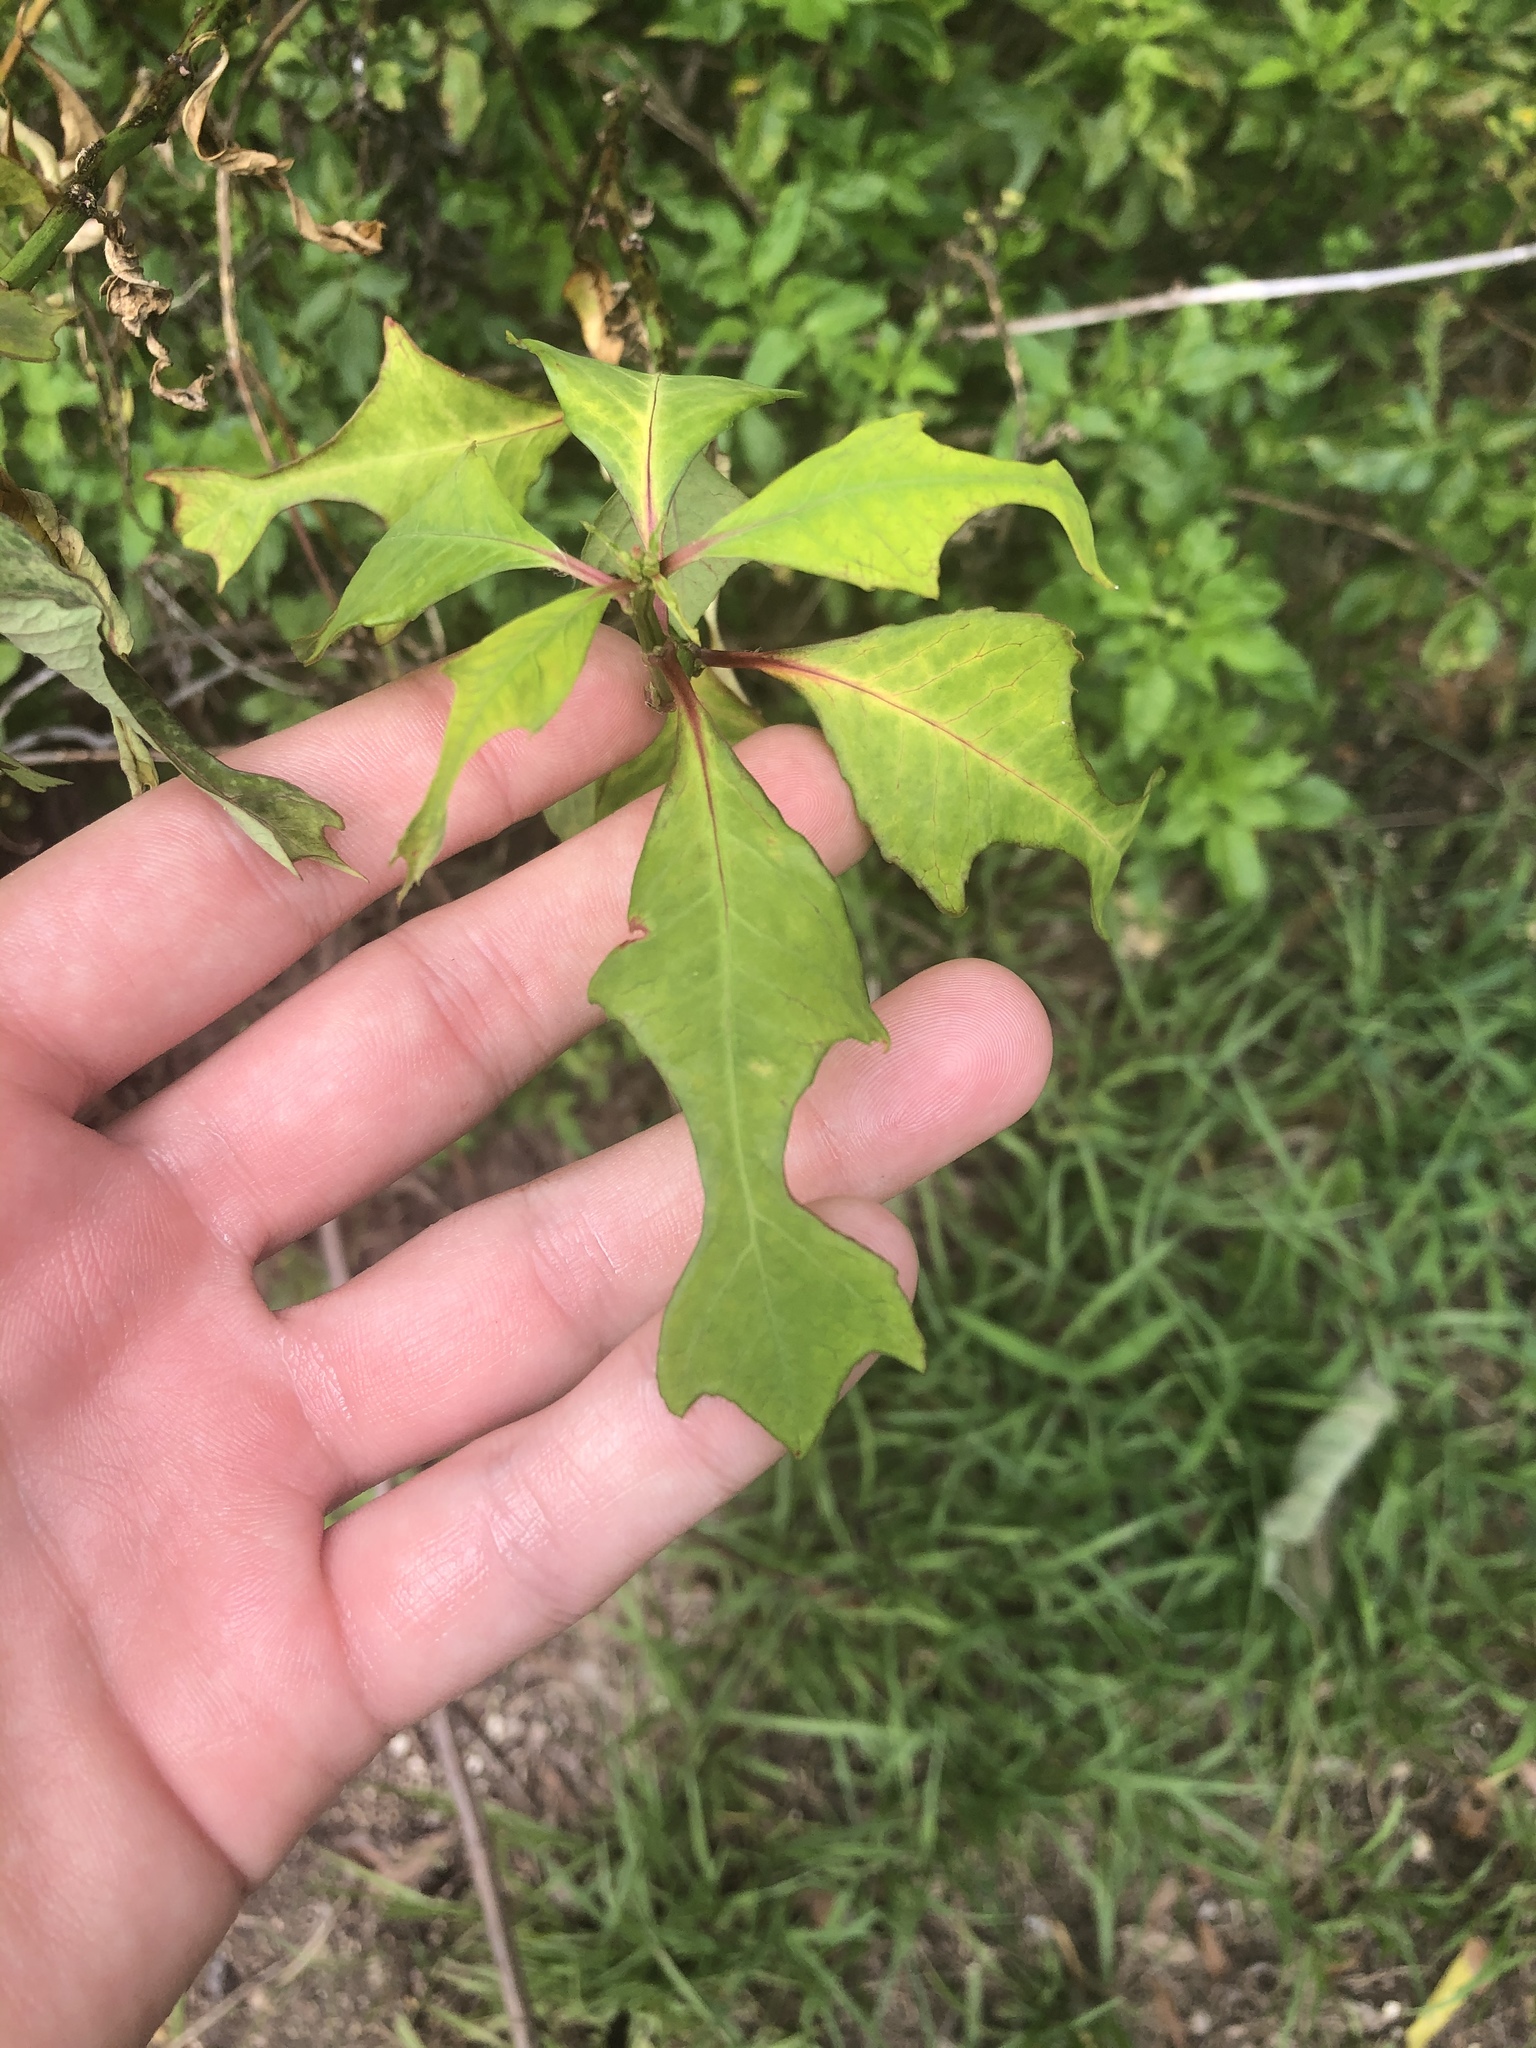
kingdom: Plantae
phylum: Tracheophyta
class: Magnoliopsida
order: Malpighiales
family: Euphorbiaceae
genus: Euphorbia
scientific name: Euphorbia heterophylla
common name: Mexican fireplant
